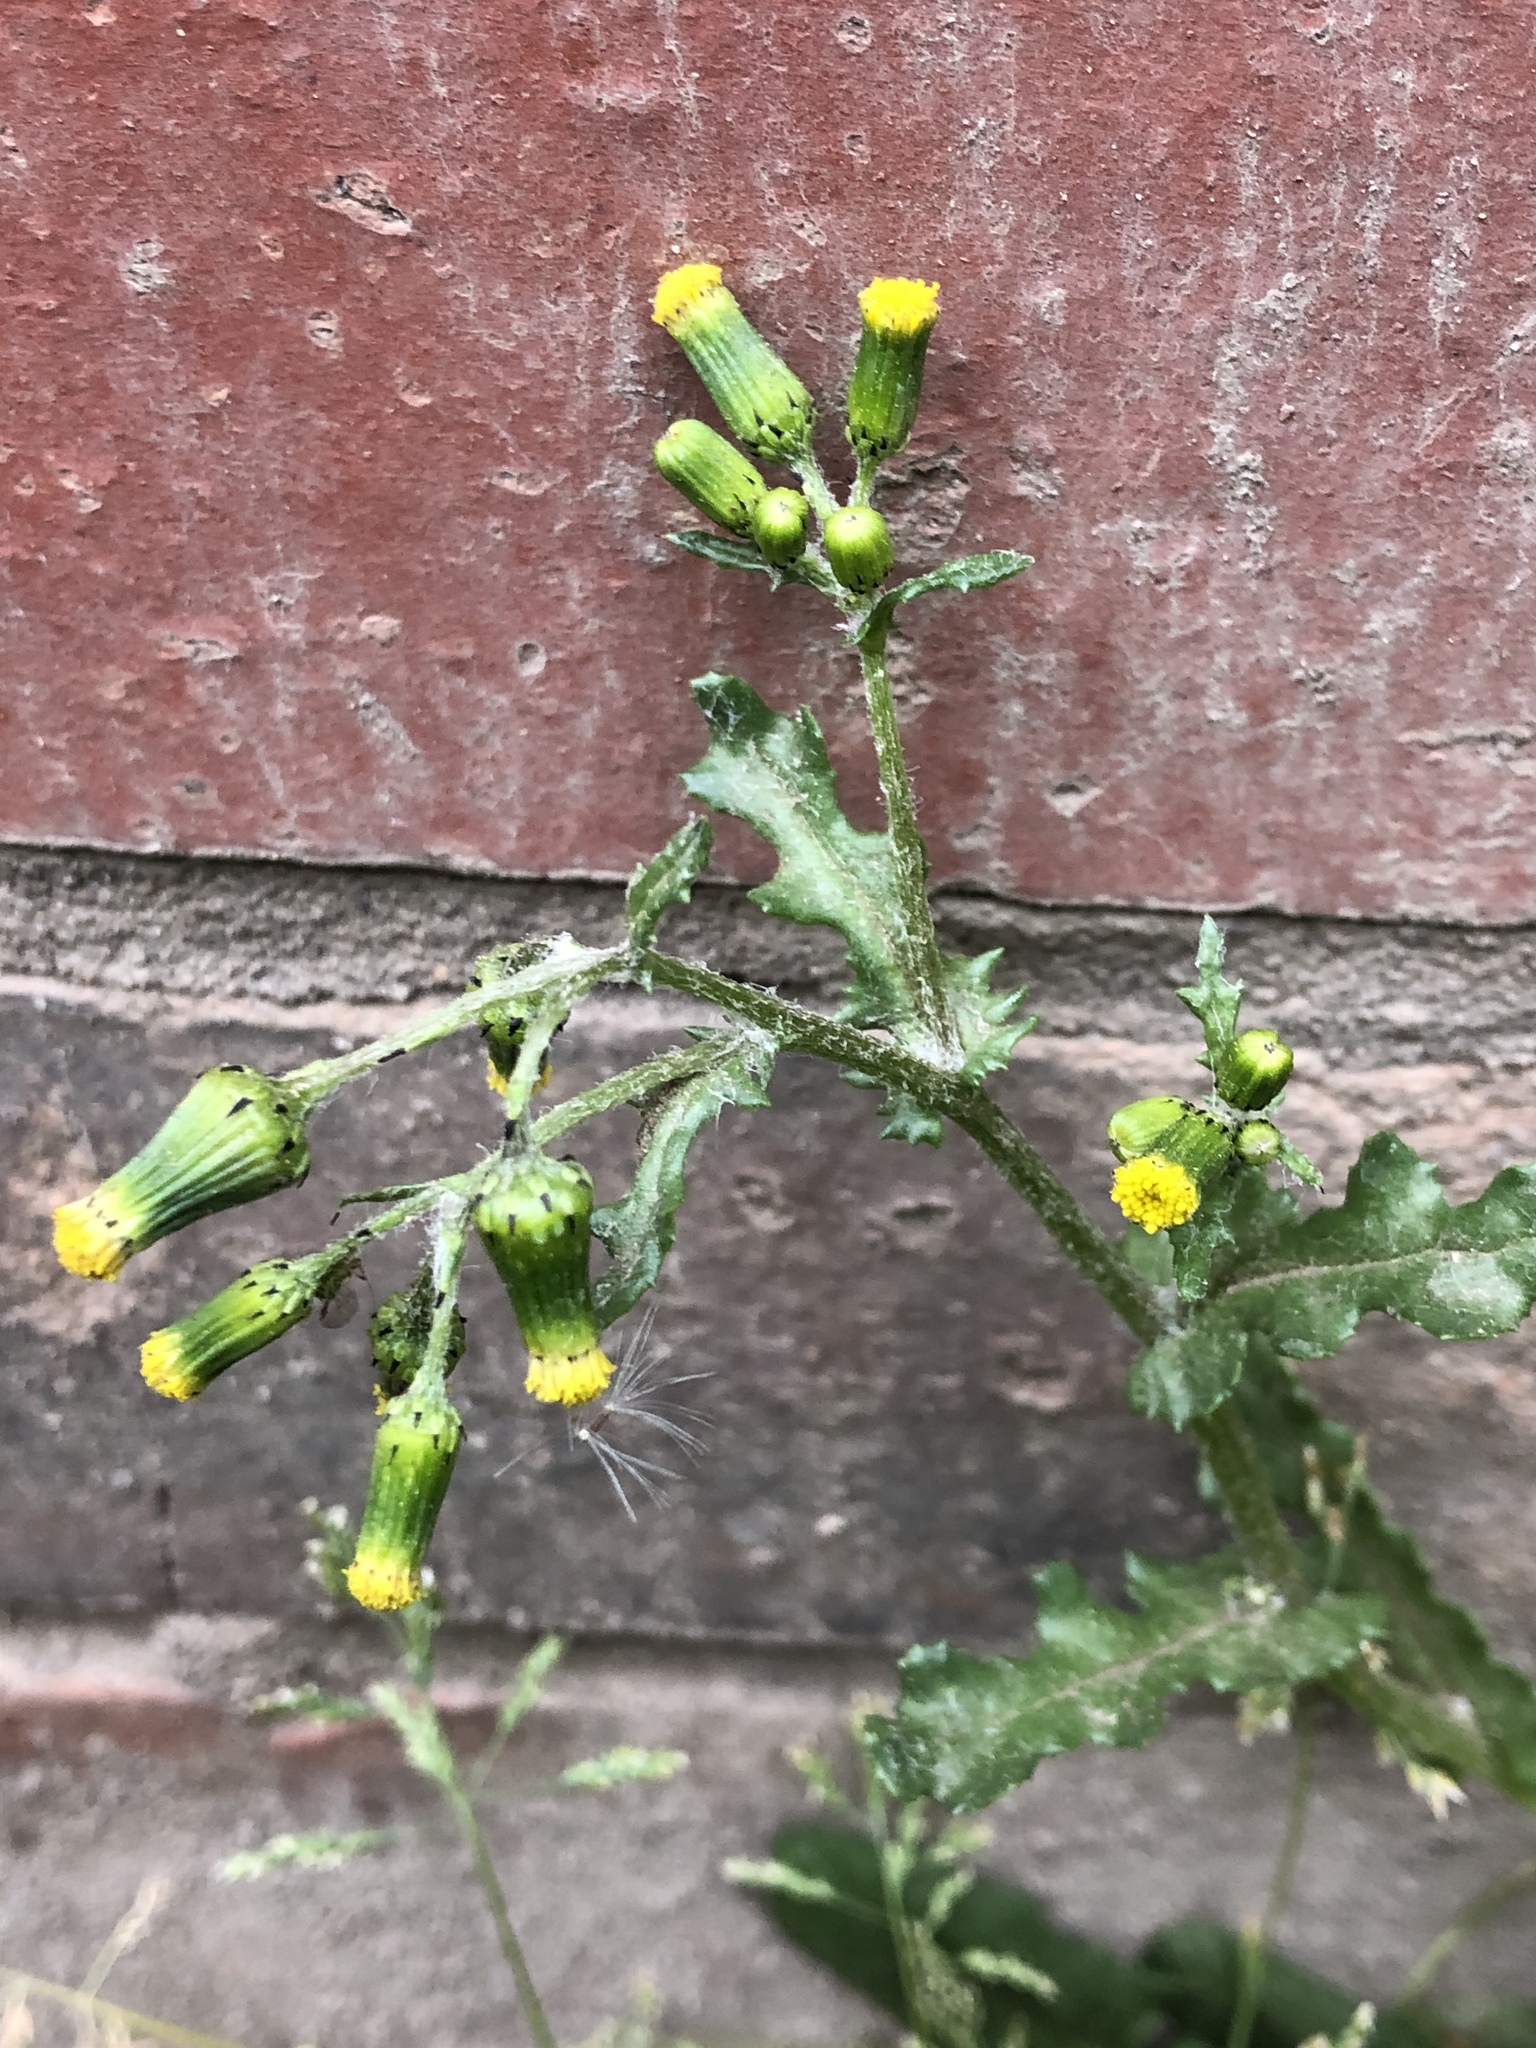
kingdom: Plantae
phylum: Tracheophyta
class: Magnoliopsida
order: Asterales
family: Asteraceae
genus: Senecio
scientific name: Senecio vulgaris
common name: Old-man-in-the-spring
